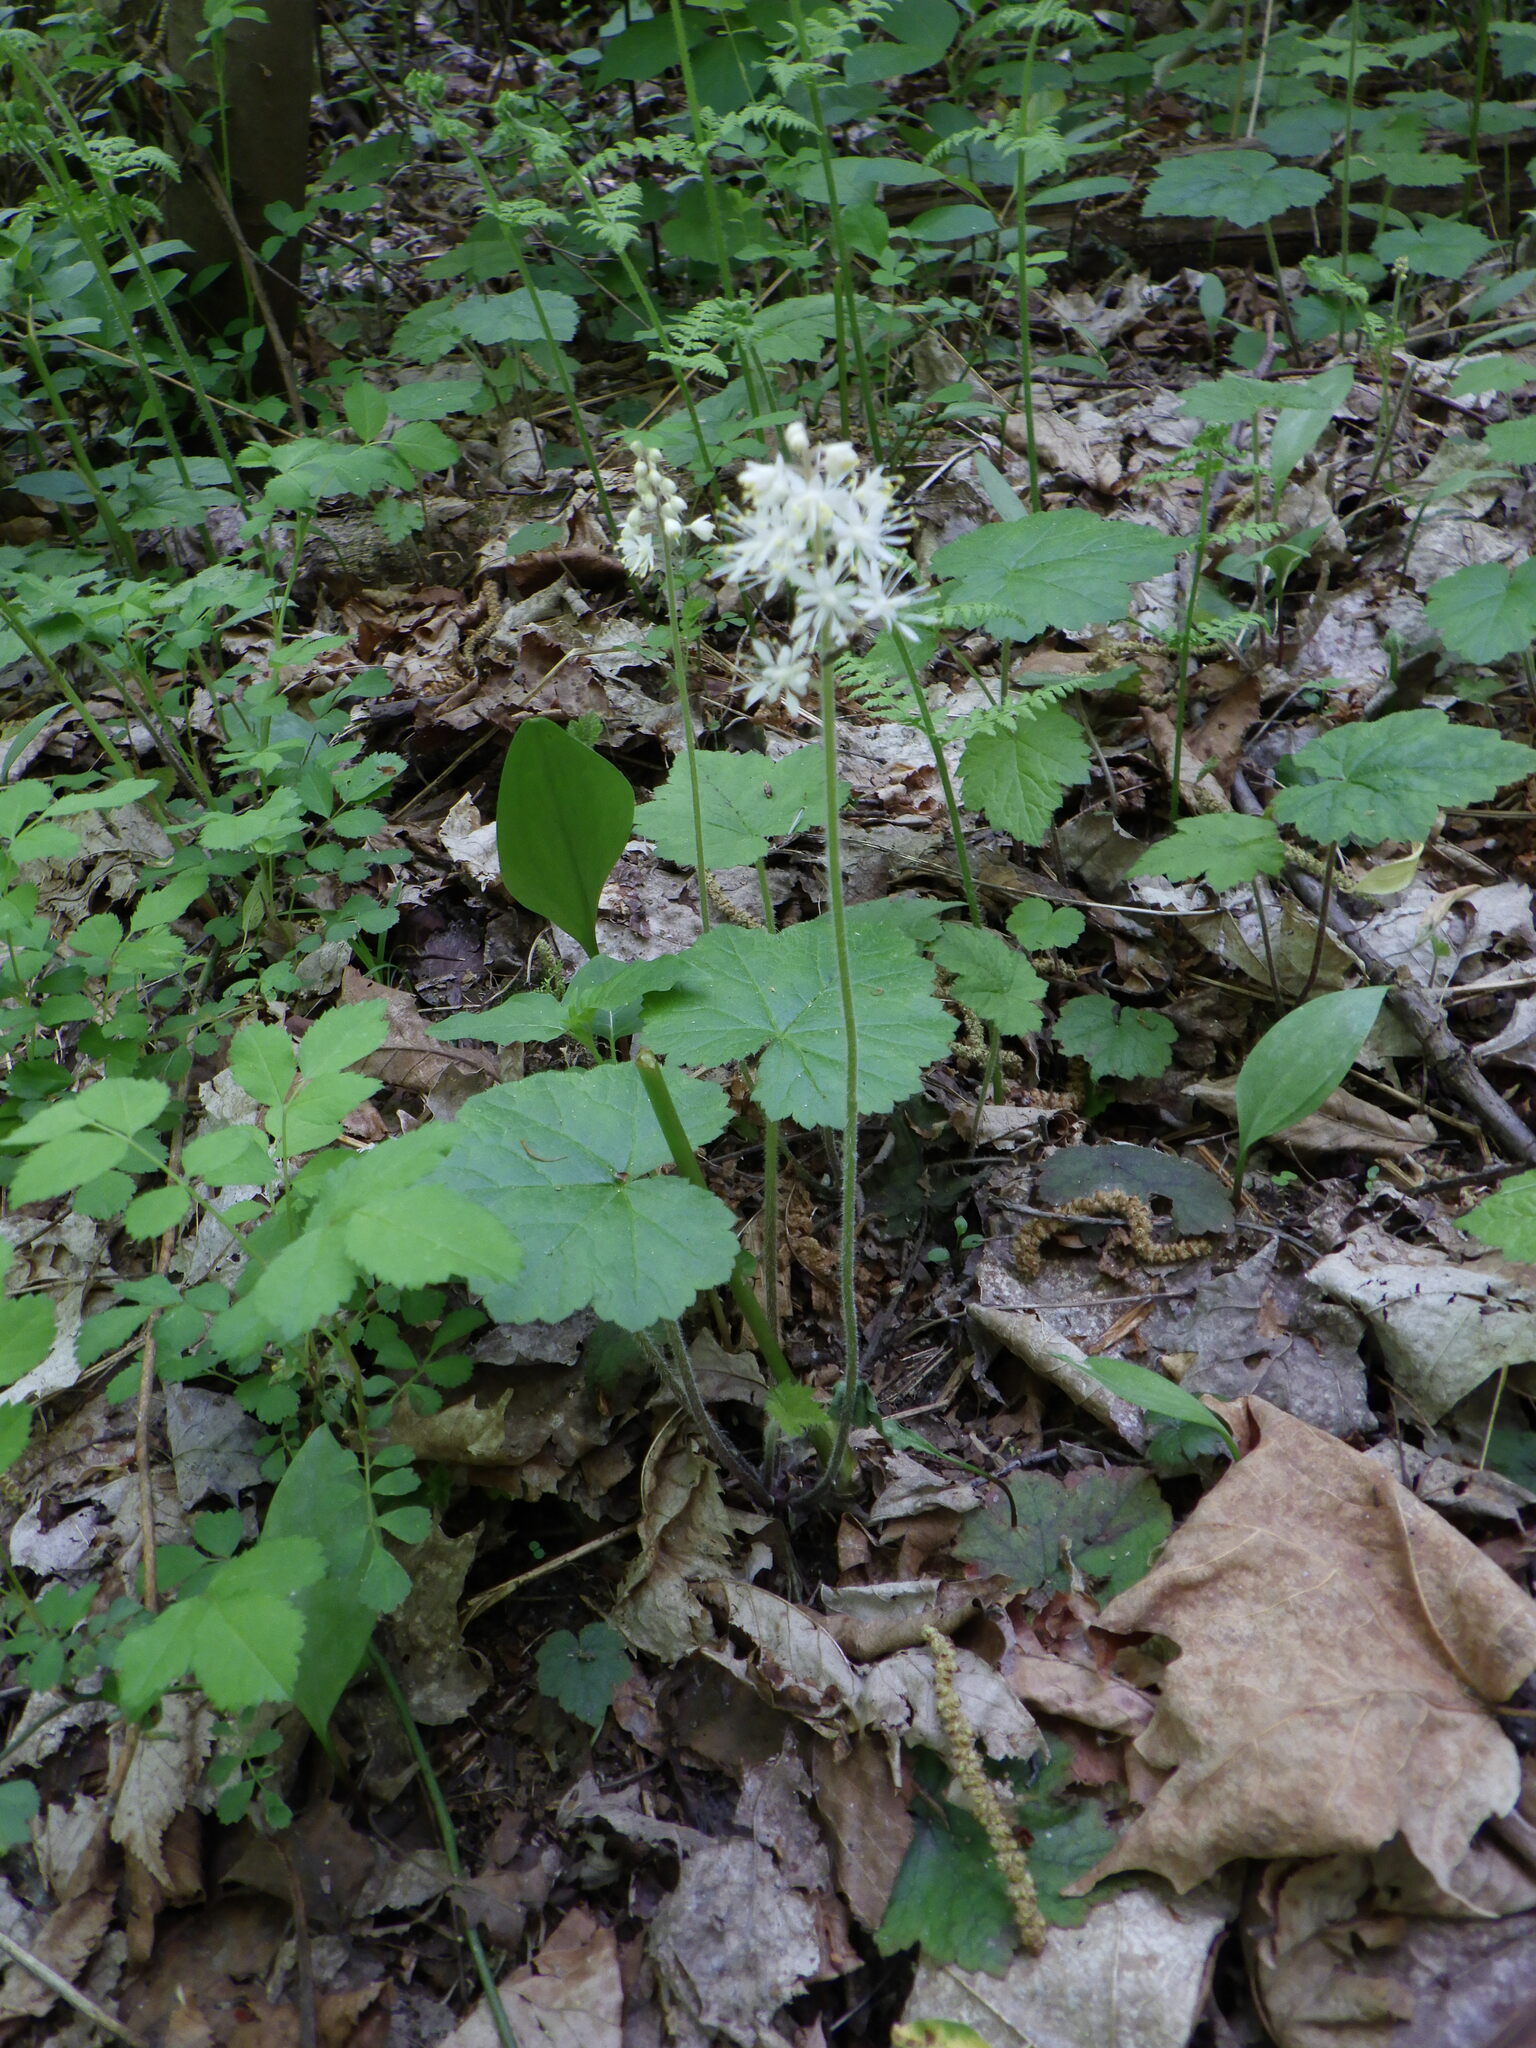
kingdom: Plantae
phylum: Tracheophyta
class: Magnoliopsida
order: Saxifragales
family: Saxifragaceae
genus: Tiarella
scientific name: Tiarella stolonifera
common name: Stoloniferous foamflower
